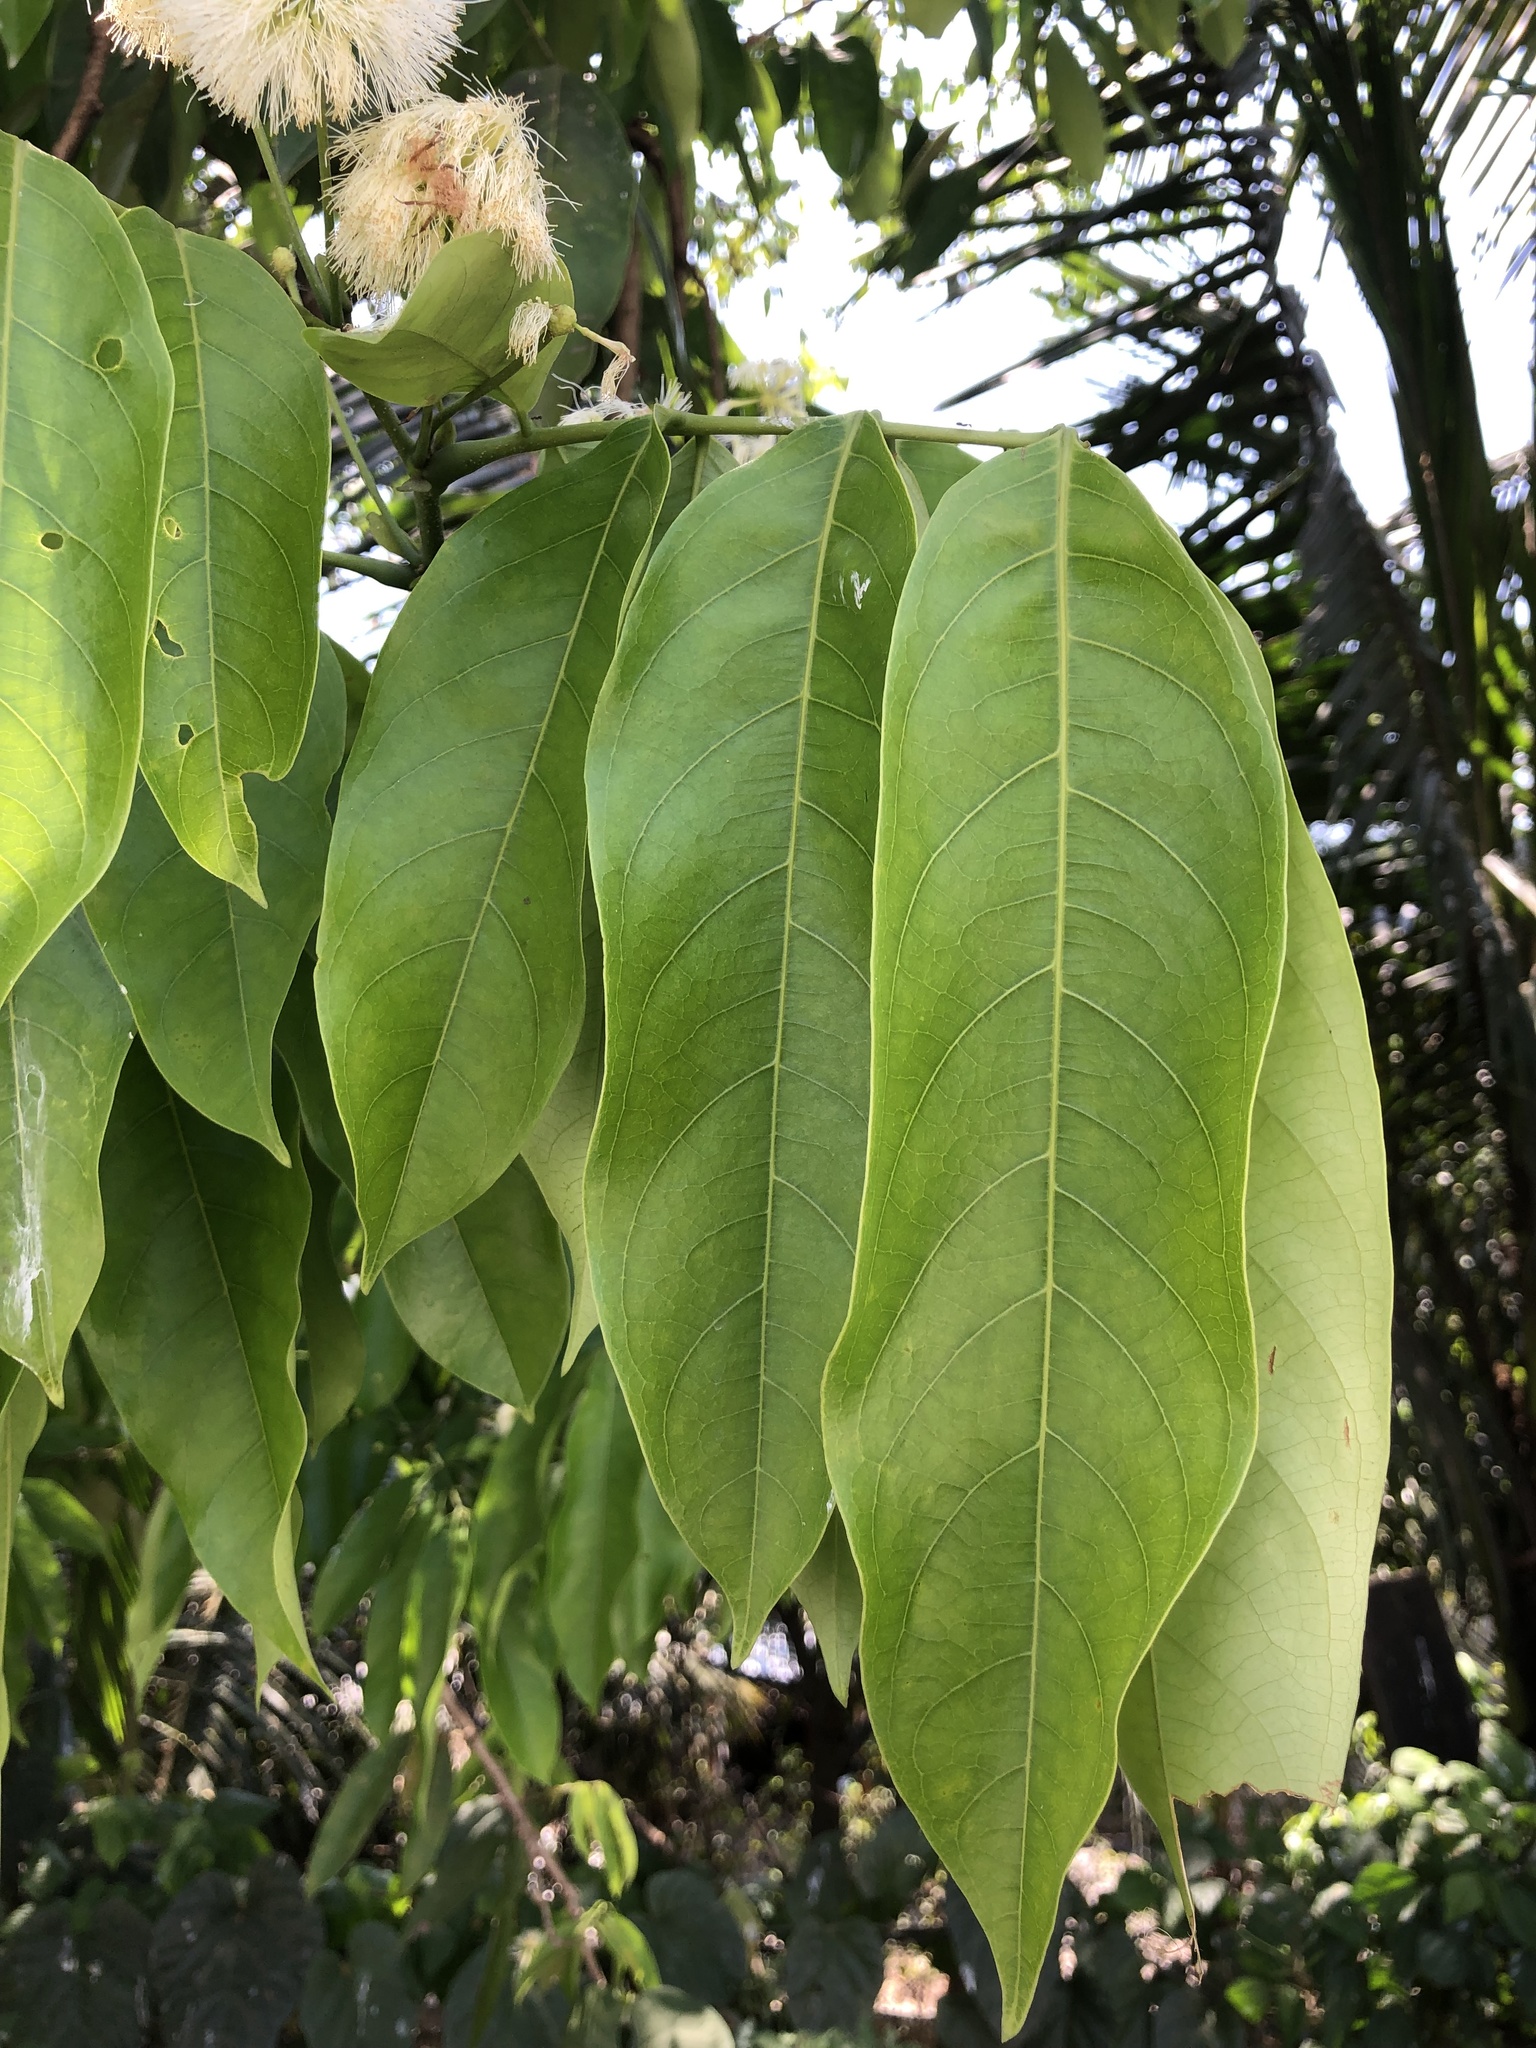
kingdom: Plantae
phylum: Tracheophyta
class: Magnoliopsida
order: Fabales
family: Fabaceae
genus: Inga
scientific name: Inga inicuil
